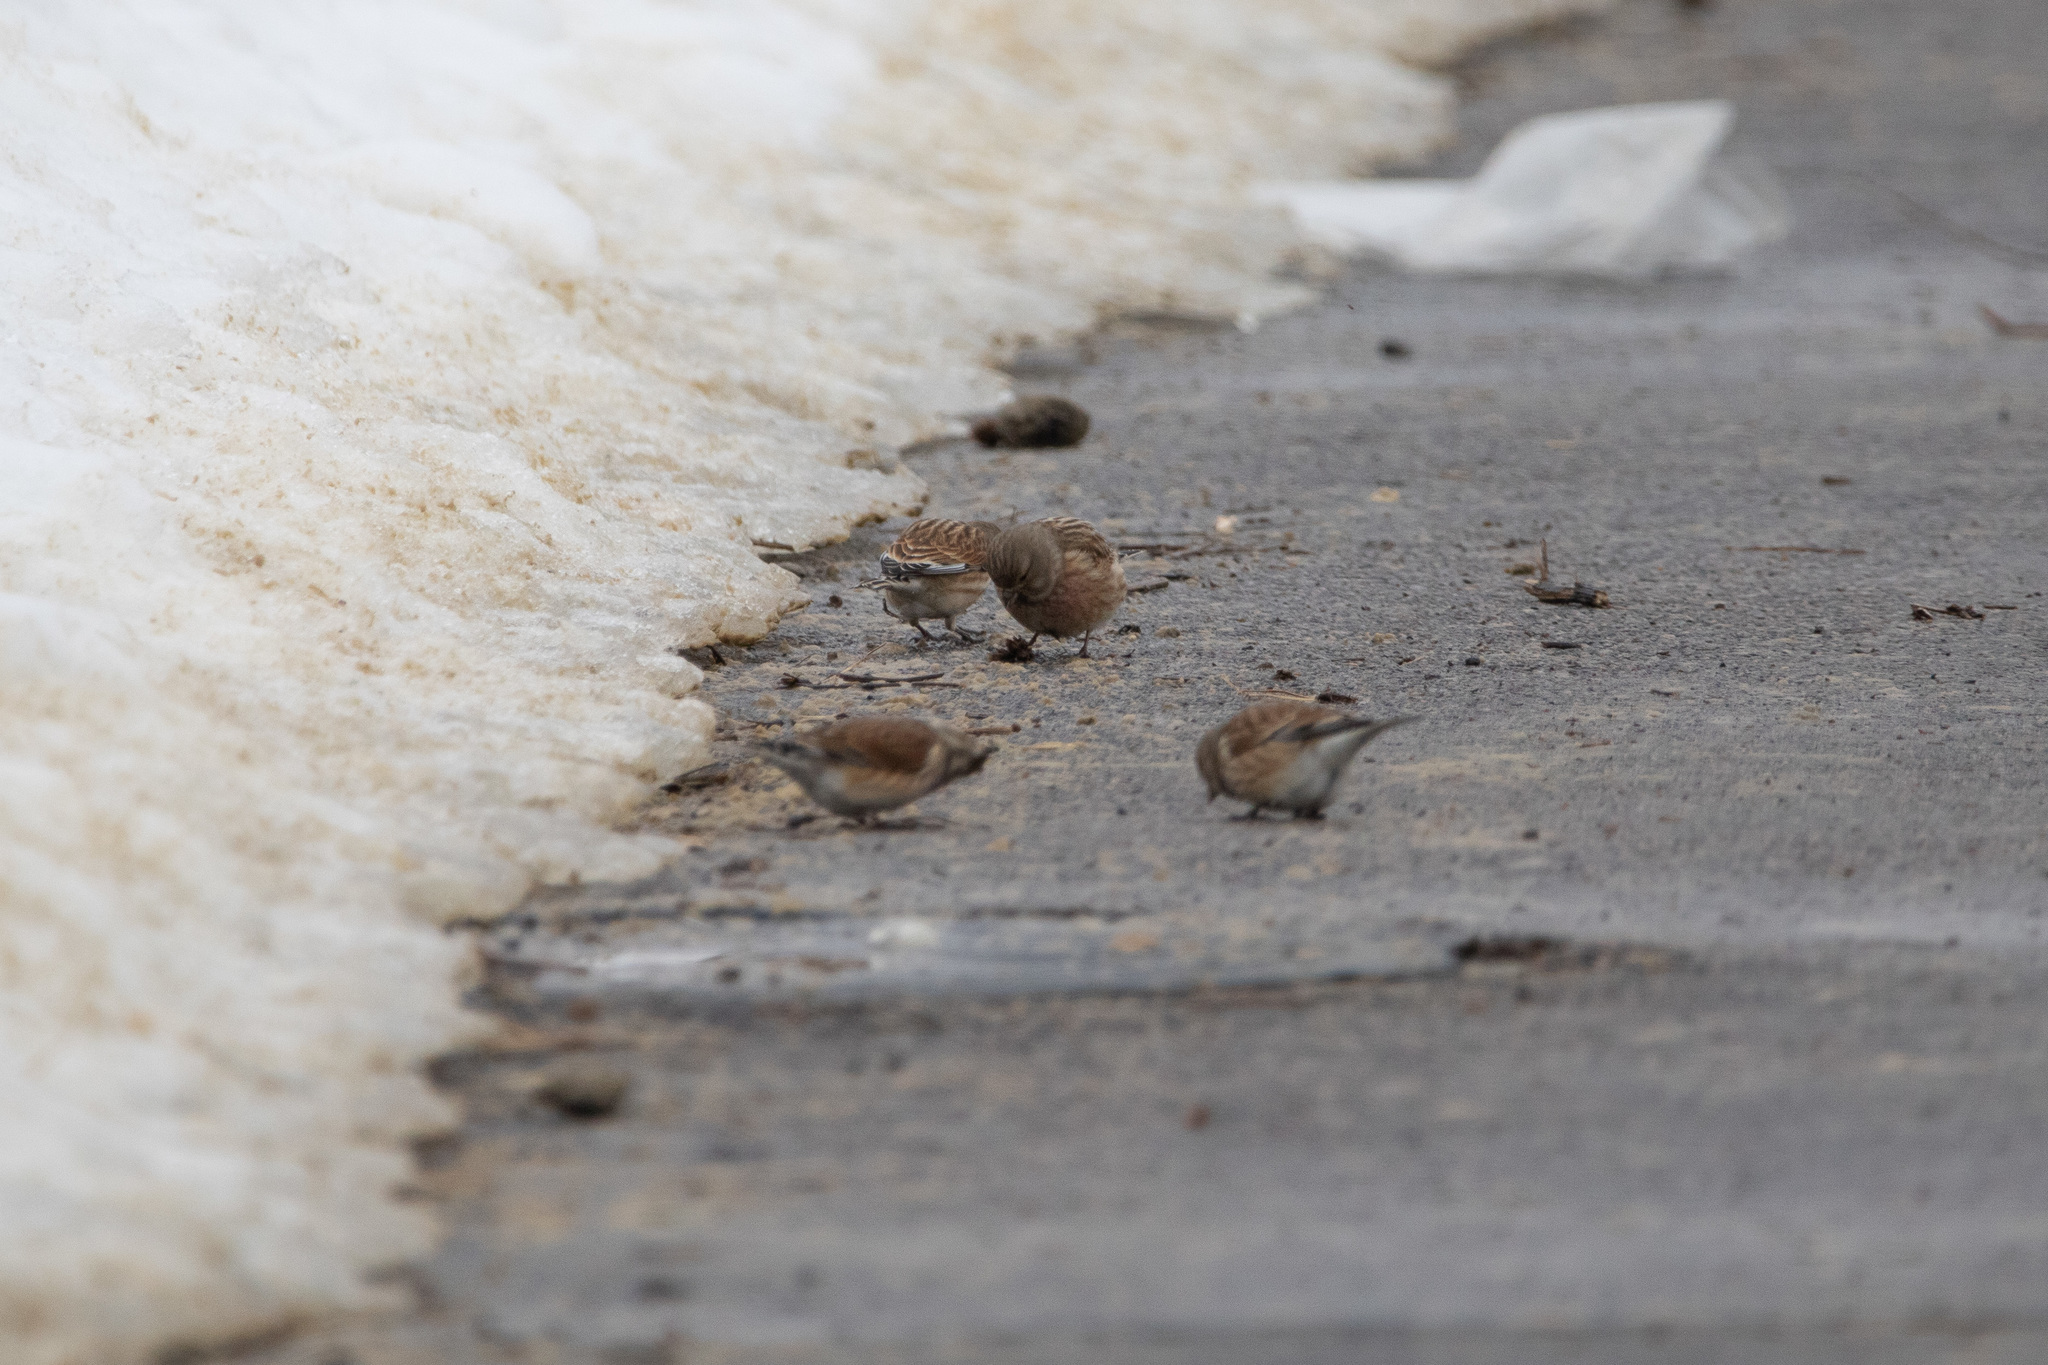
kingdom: Animalia
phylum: Chordata
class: Aves
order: Passeriformes
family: Fringillidae
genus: Linaria
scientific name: Linaria cannabina
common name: Common linnet
